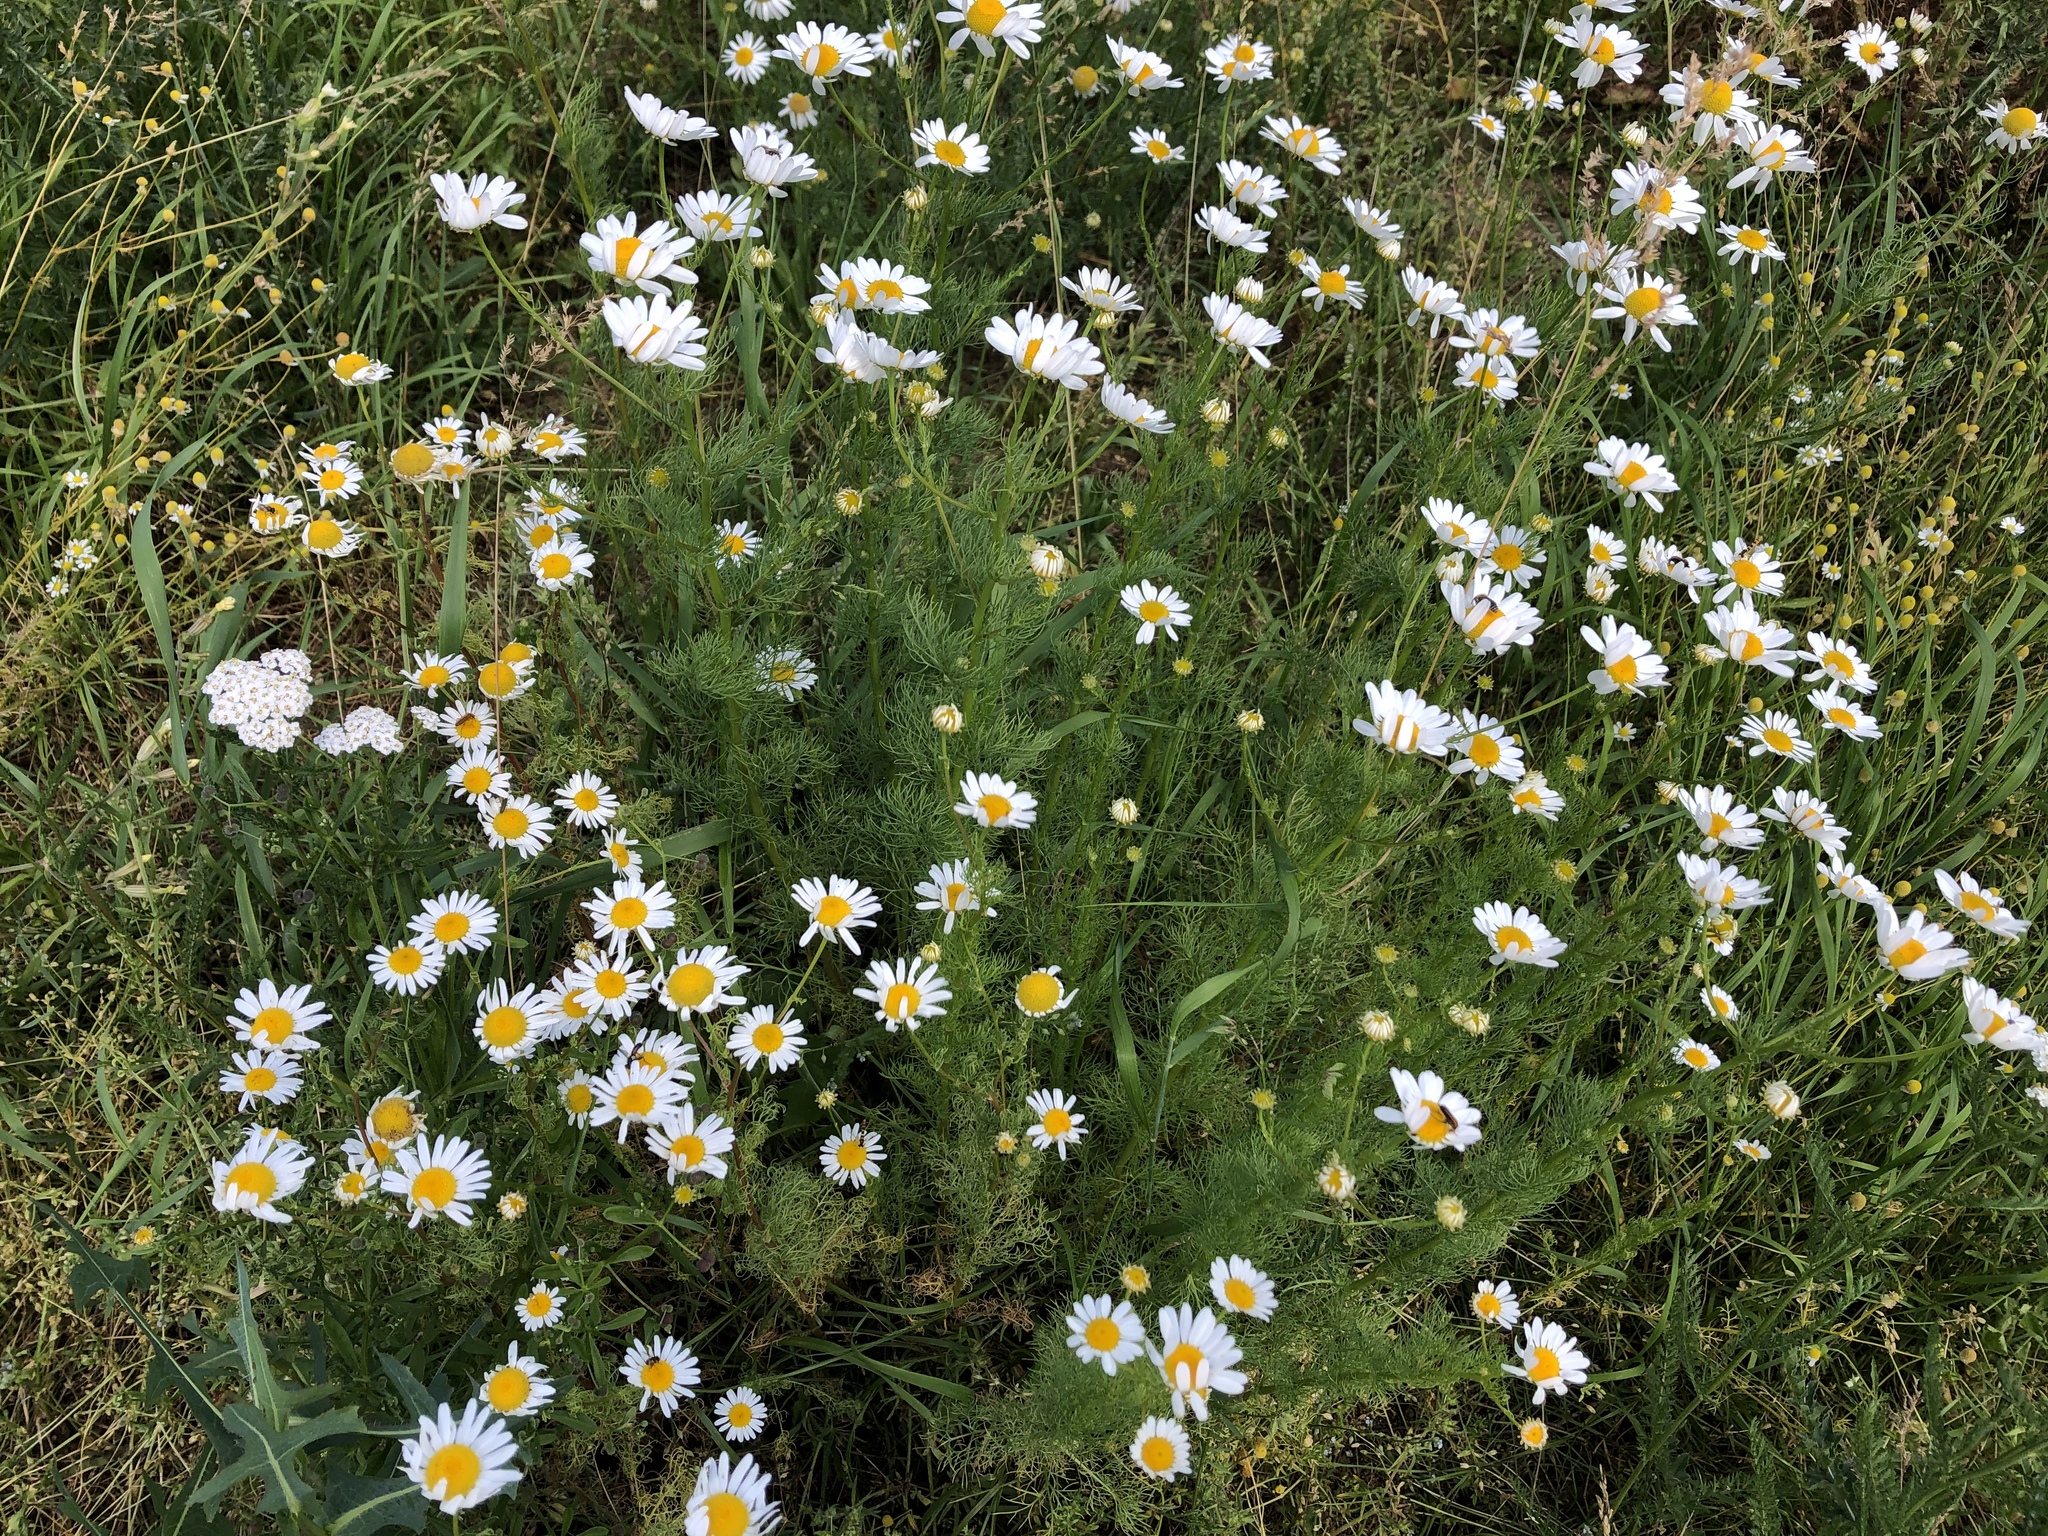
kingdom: Plantae
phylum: Tracheophyta
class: Magnoliopsida
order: Asterales
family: Asteraceae
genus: Tripleurospermum
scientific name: Tripleurospermum inodorum
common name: Scentless mayweed
